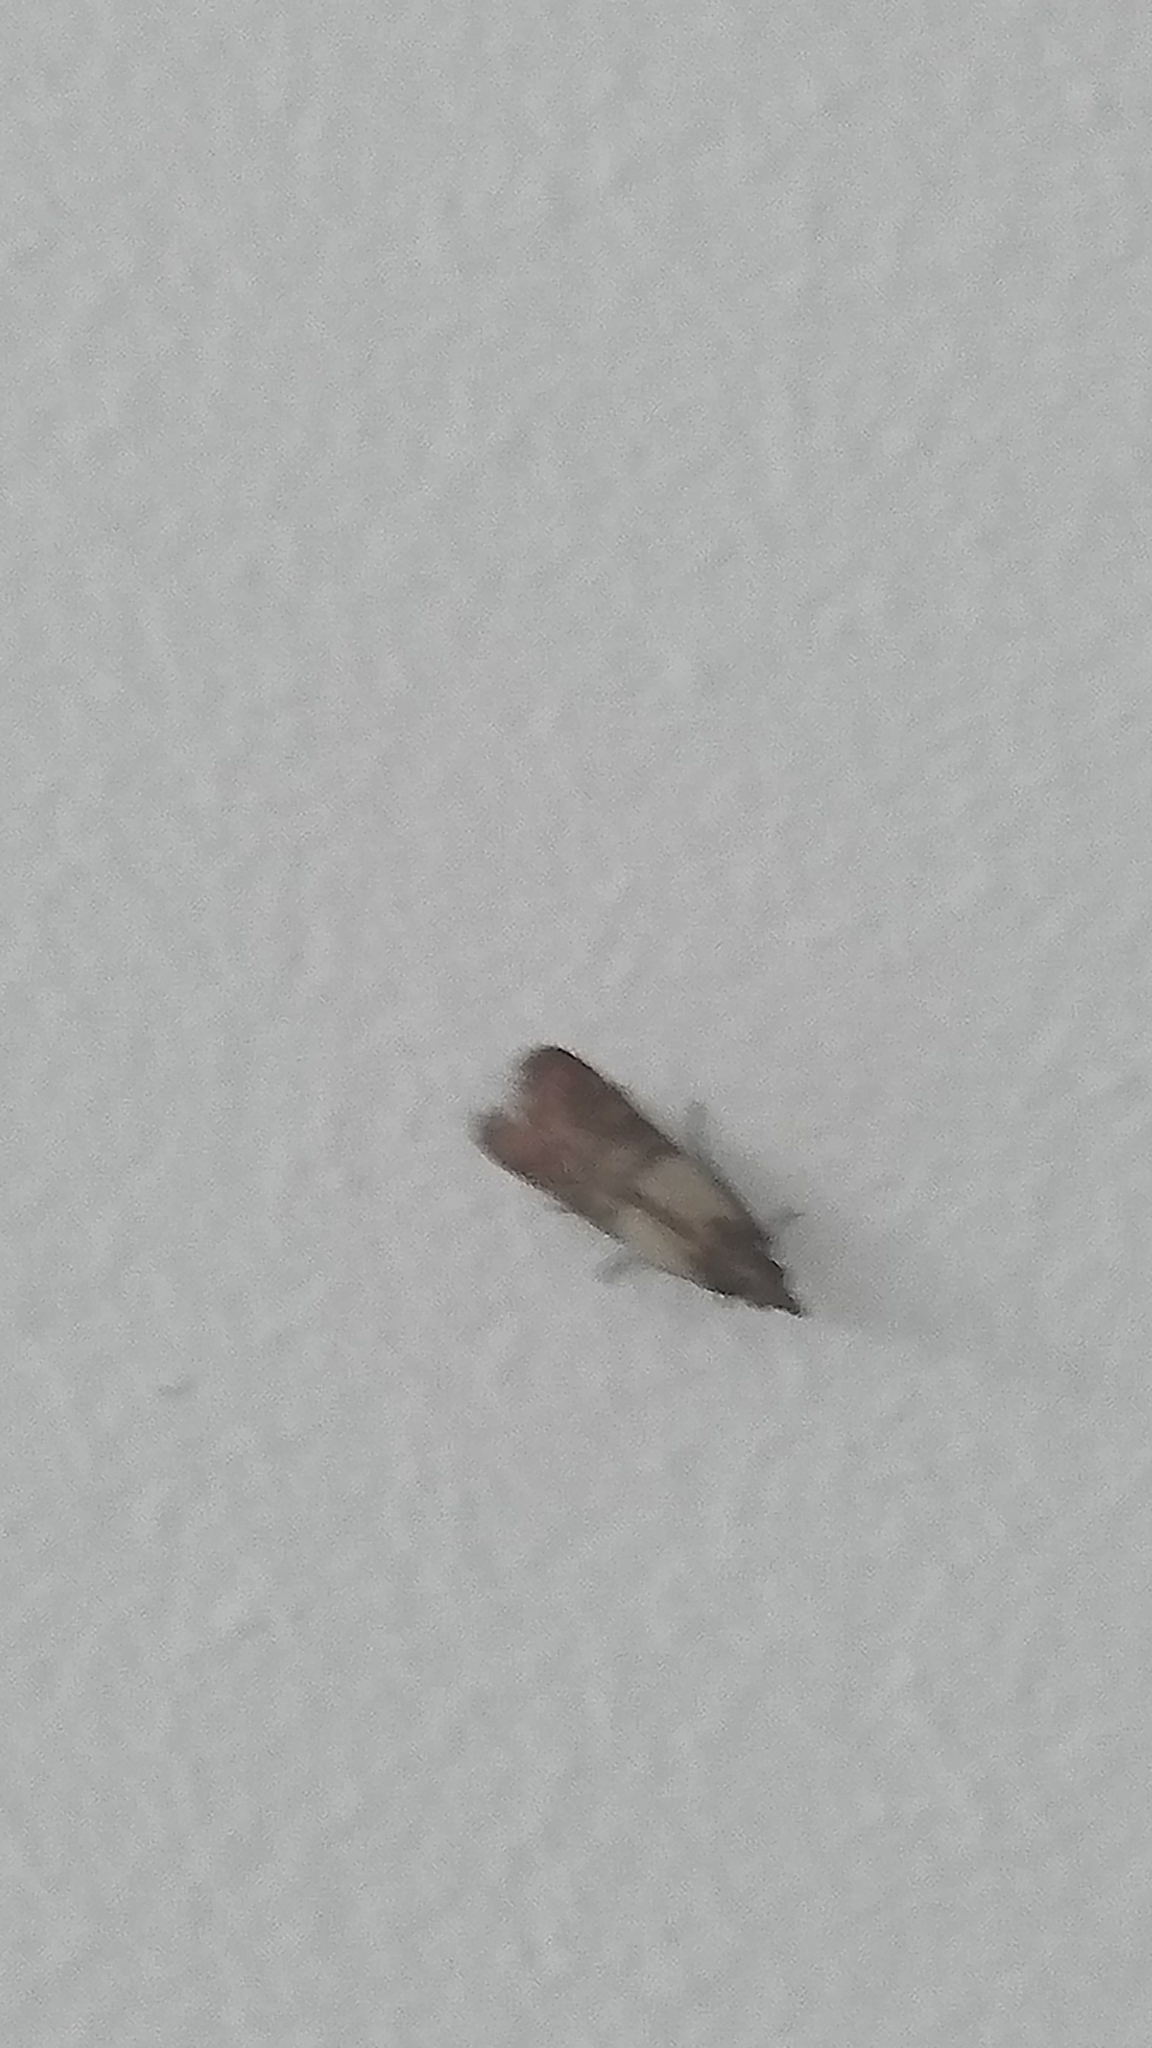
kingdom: Animalia
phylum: Arthropoda
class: Insecta
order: Lepidoptera
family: Pyralidae
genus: Plodia
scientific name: Plodia interpunctella
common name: Indian meal moth
